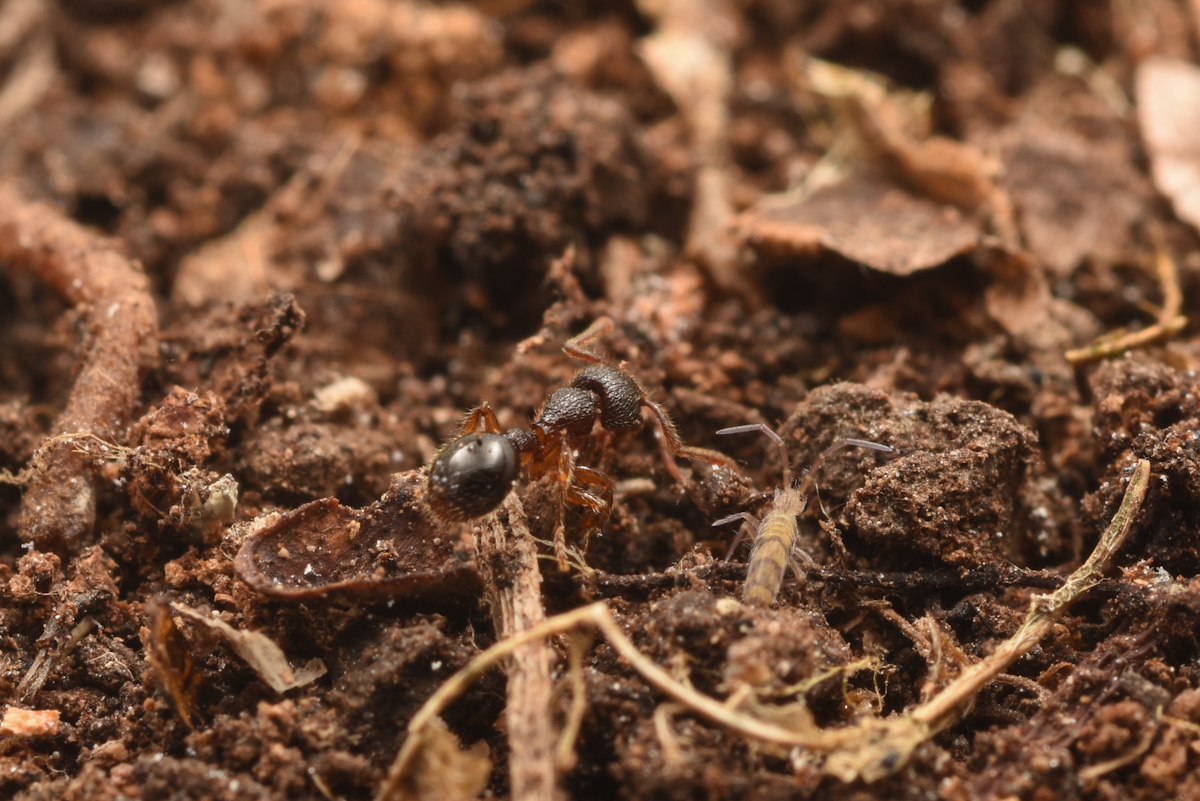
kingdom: Animalia
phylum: Arthropoda
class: Insecta
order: Hymenoptera
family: Formicidae
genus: Myrmecina
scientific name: Myrmecina nipponica
